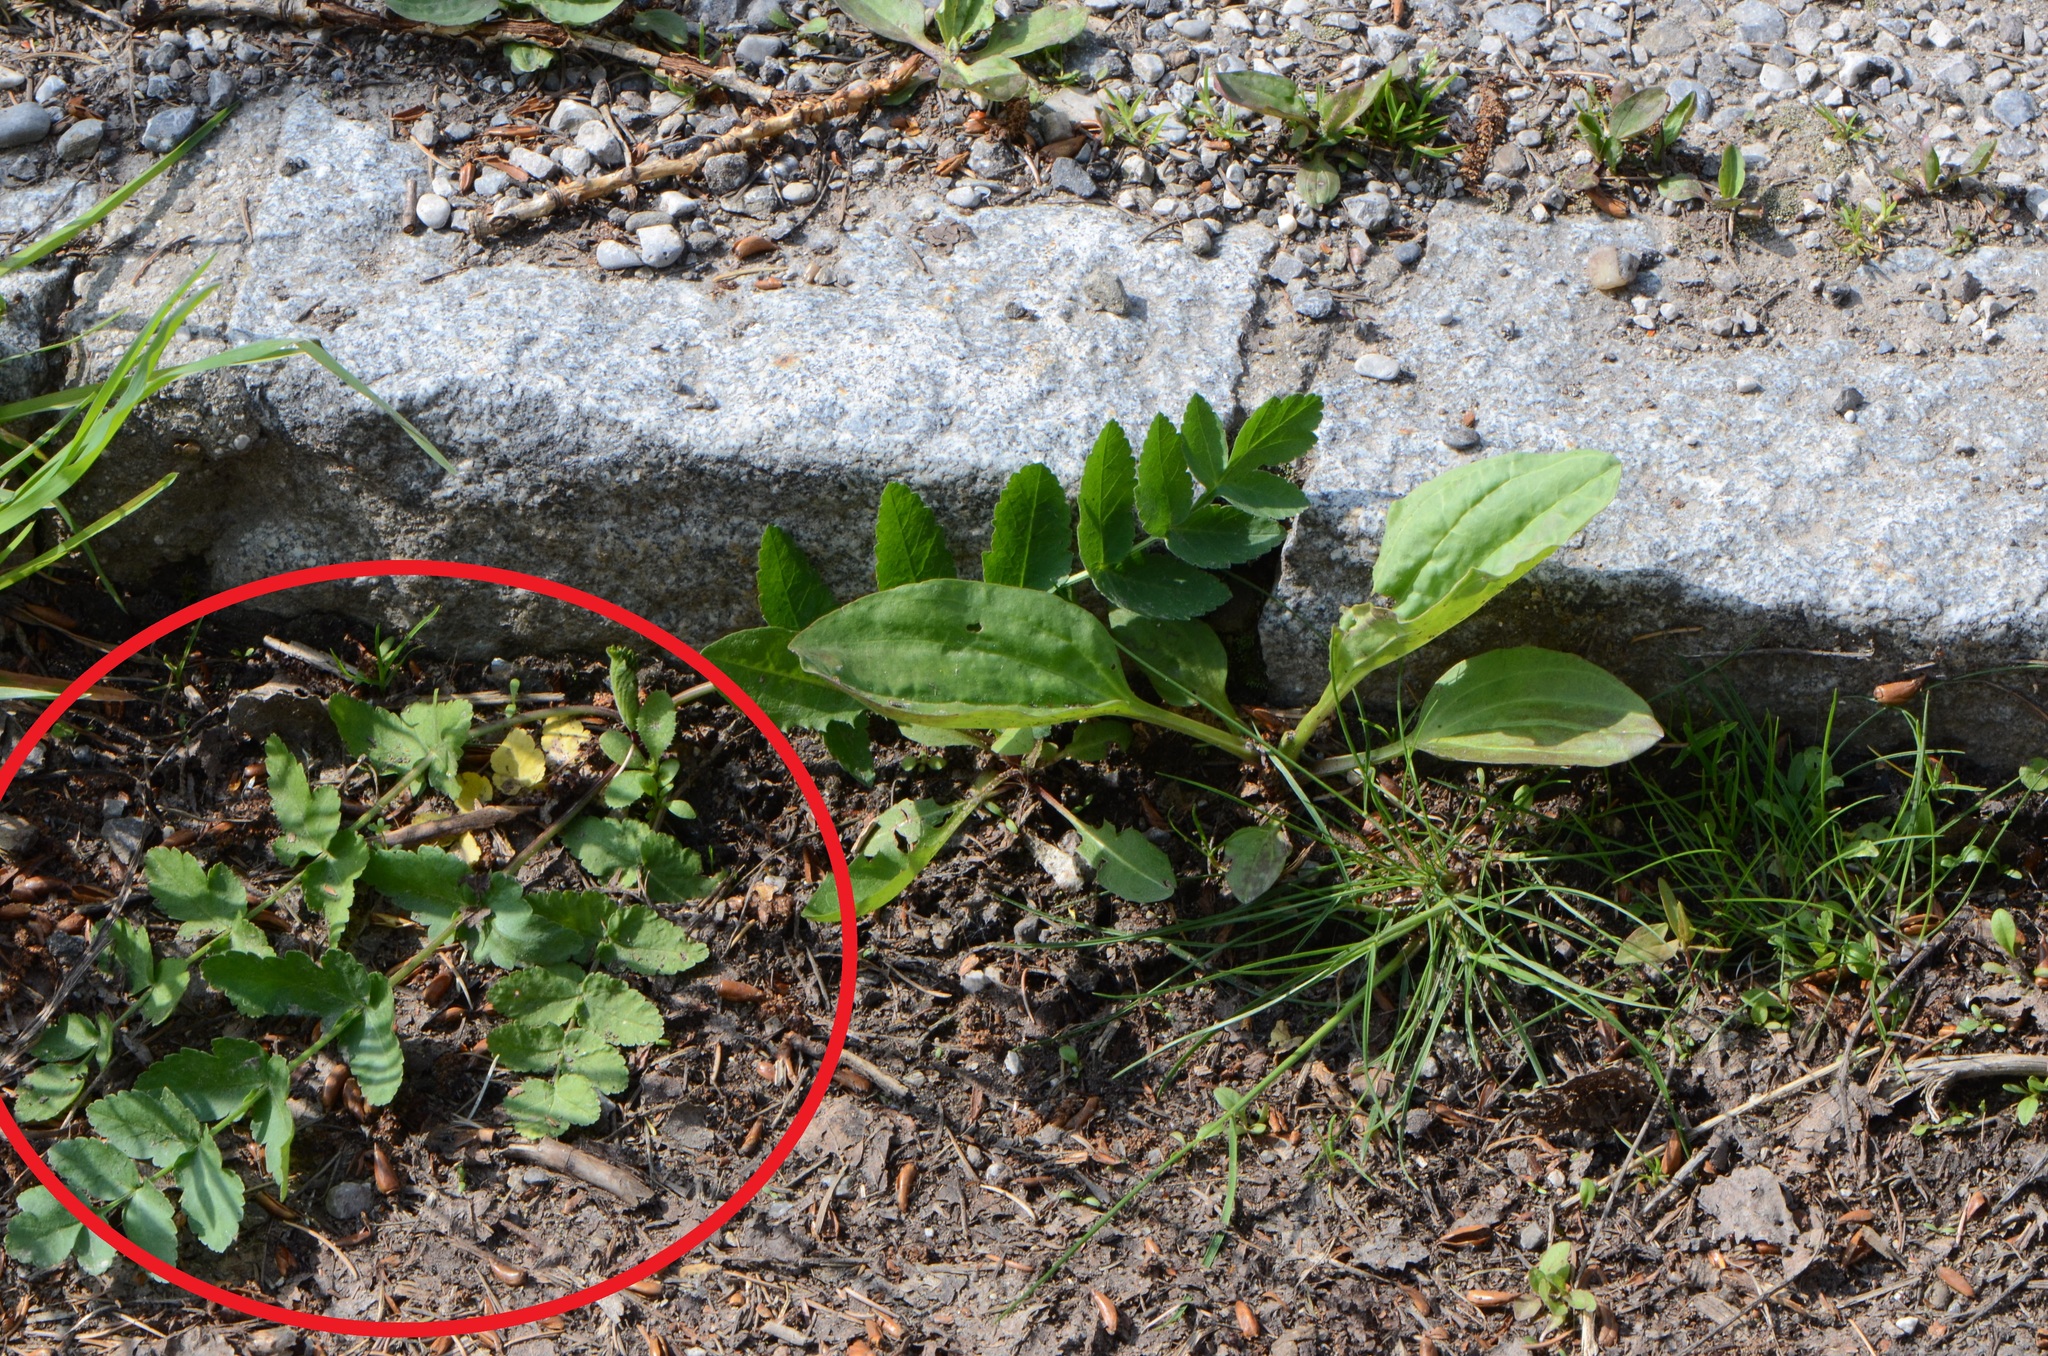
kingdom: Plantae
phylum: Tracheophyta
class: Magnoliopsida
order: Apiales
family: Apiaceae
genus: Pastinaca
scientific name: Pastinaca sativa
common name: Wild parsnip
